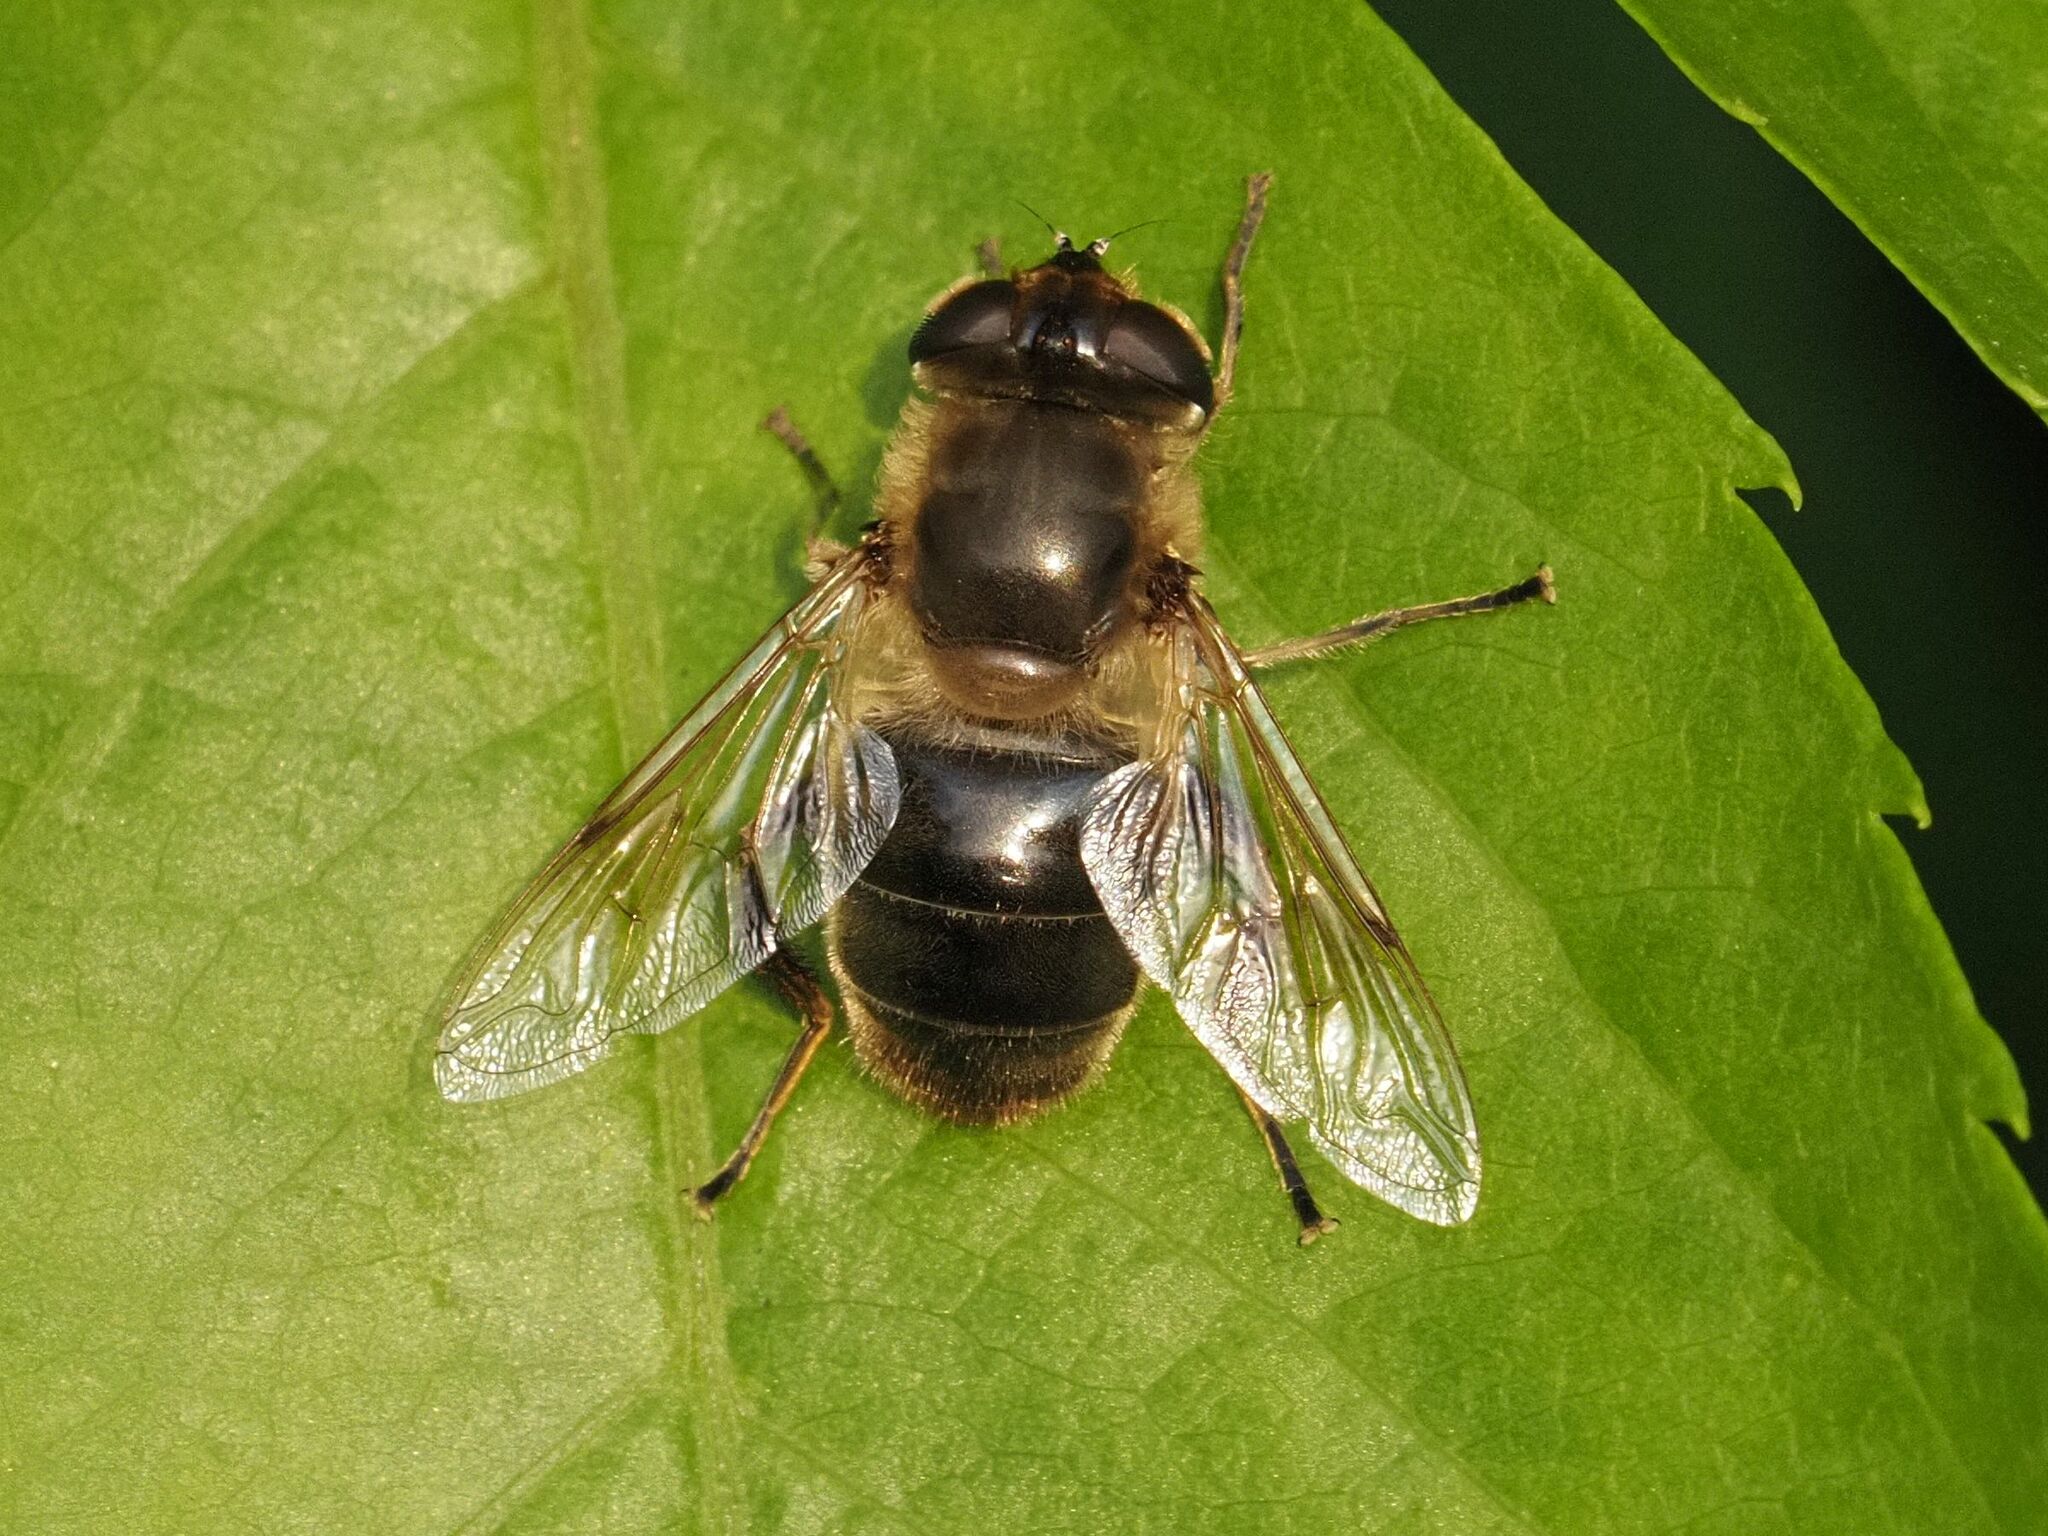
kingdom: Animalia
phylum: Arthropoda
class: Insecta
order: Diptera
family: Syrphidae
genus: Eristalis
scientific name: Eristalis tenax
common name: Drone fly
